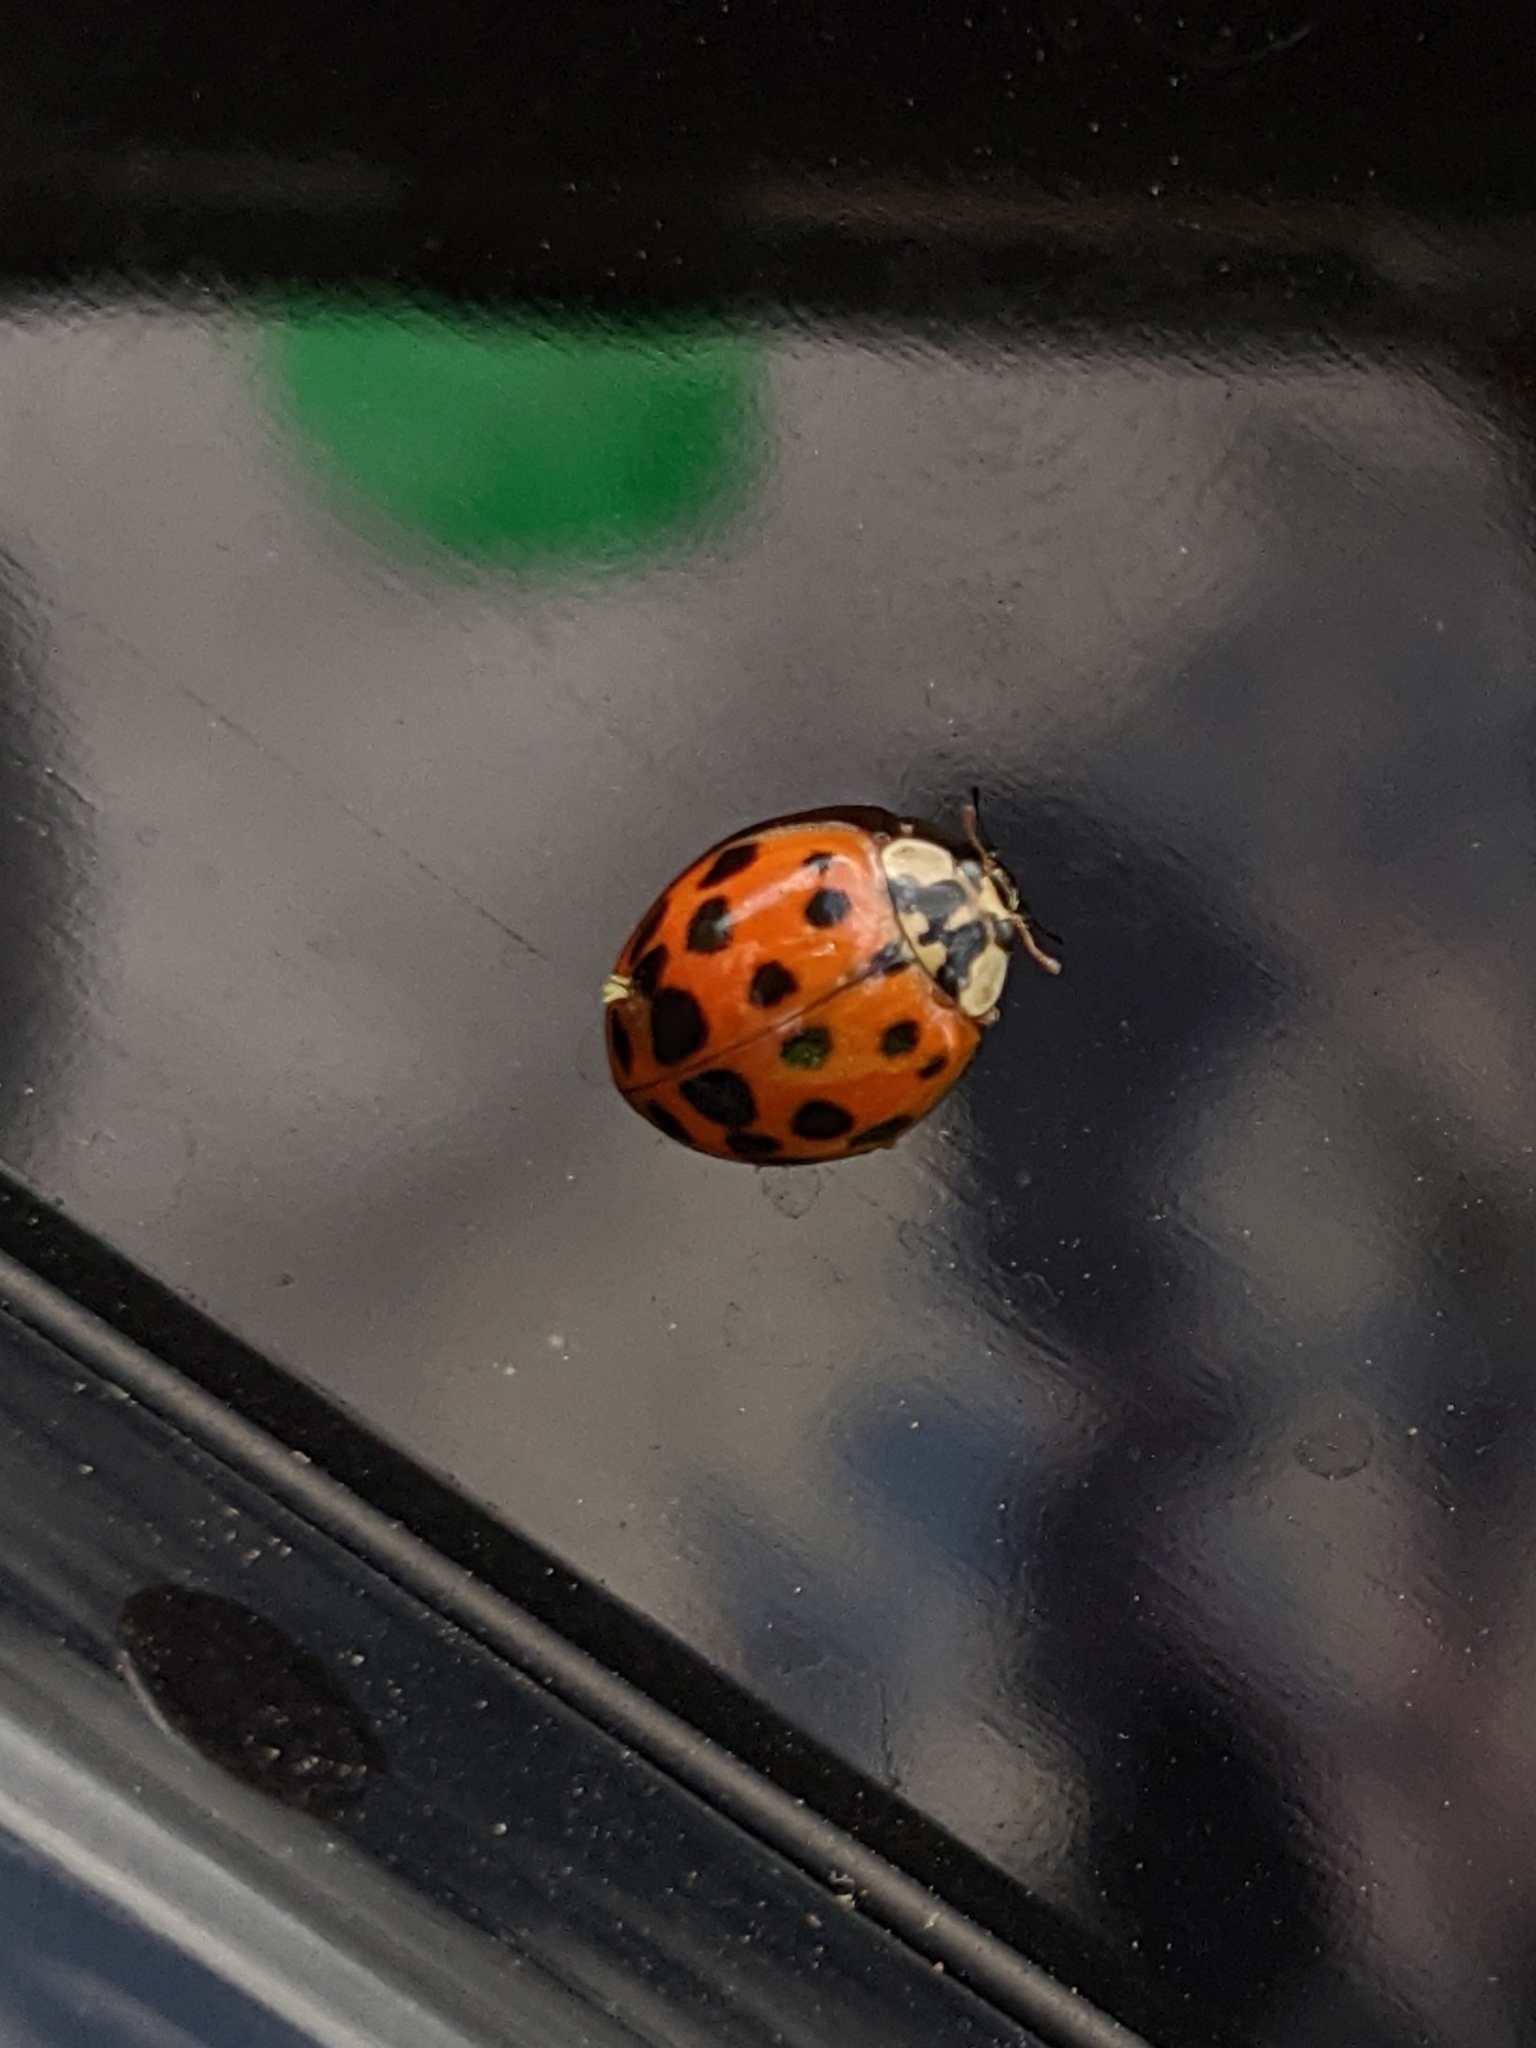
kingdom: Animalia
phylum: Arthropoda
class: Insecta
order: Coleoptera
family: Coccinellidae
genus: Harmonia
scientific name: Harmonia axyridis
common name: Harlequin ladybird
